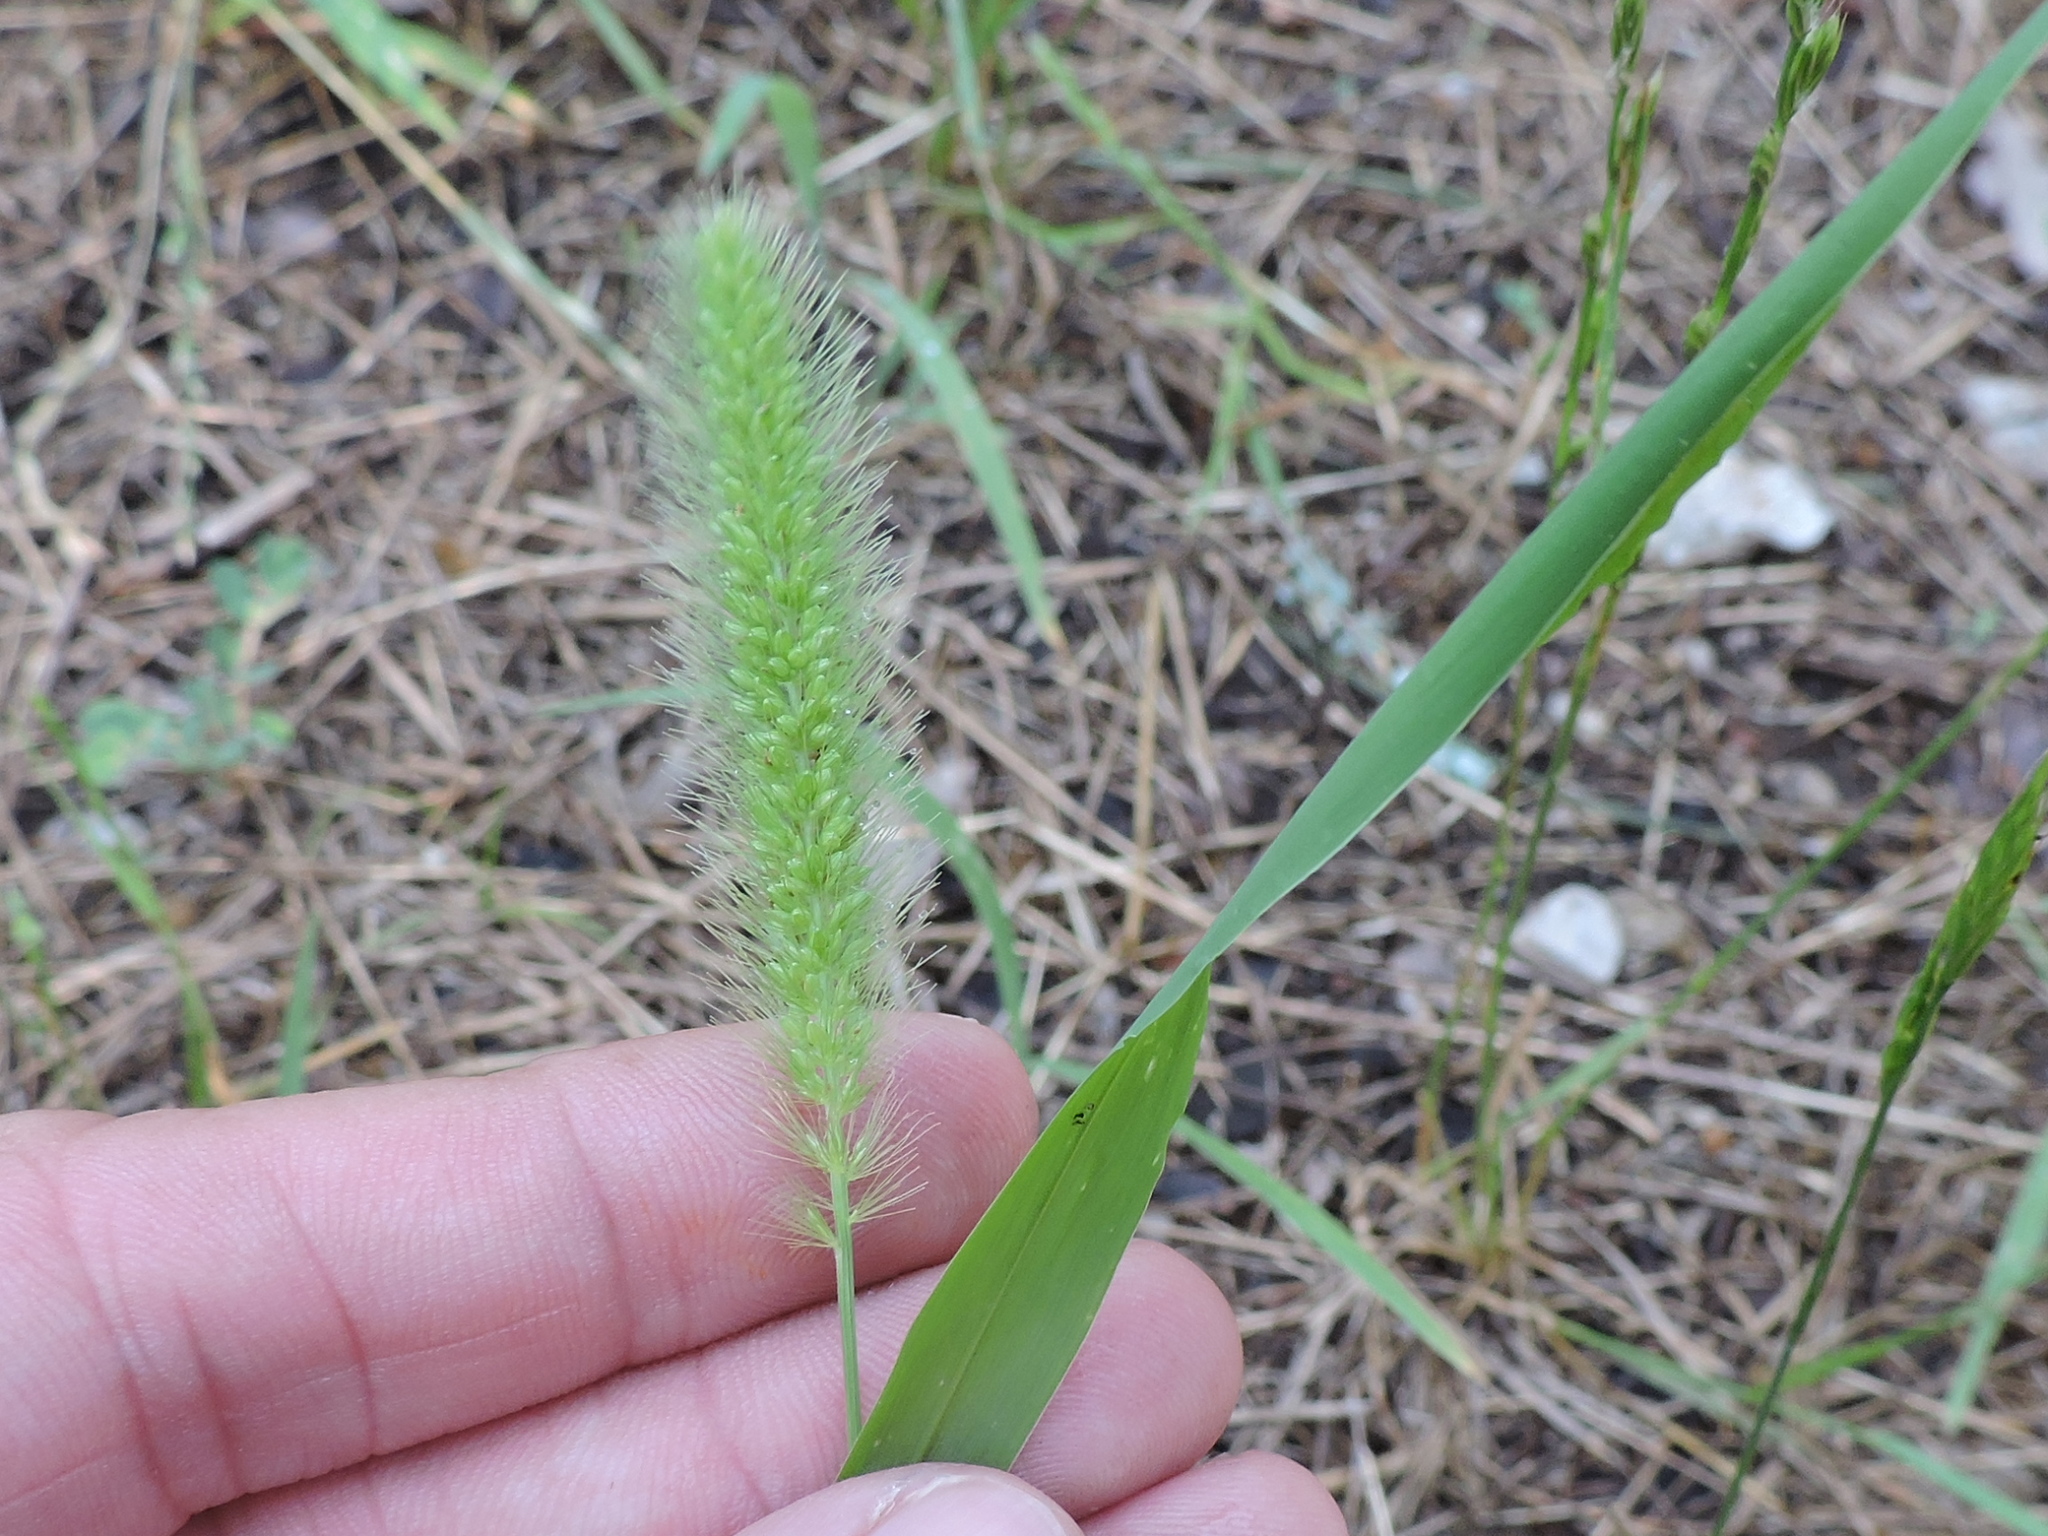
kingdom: Plantae
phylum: Tracheophyta
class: Liliopsida
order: Poales
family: Poaceae
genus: Setaria
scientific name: Setaria viridis
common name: Green bristlegrass
